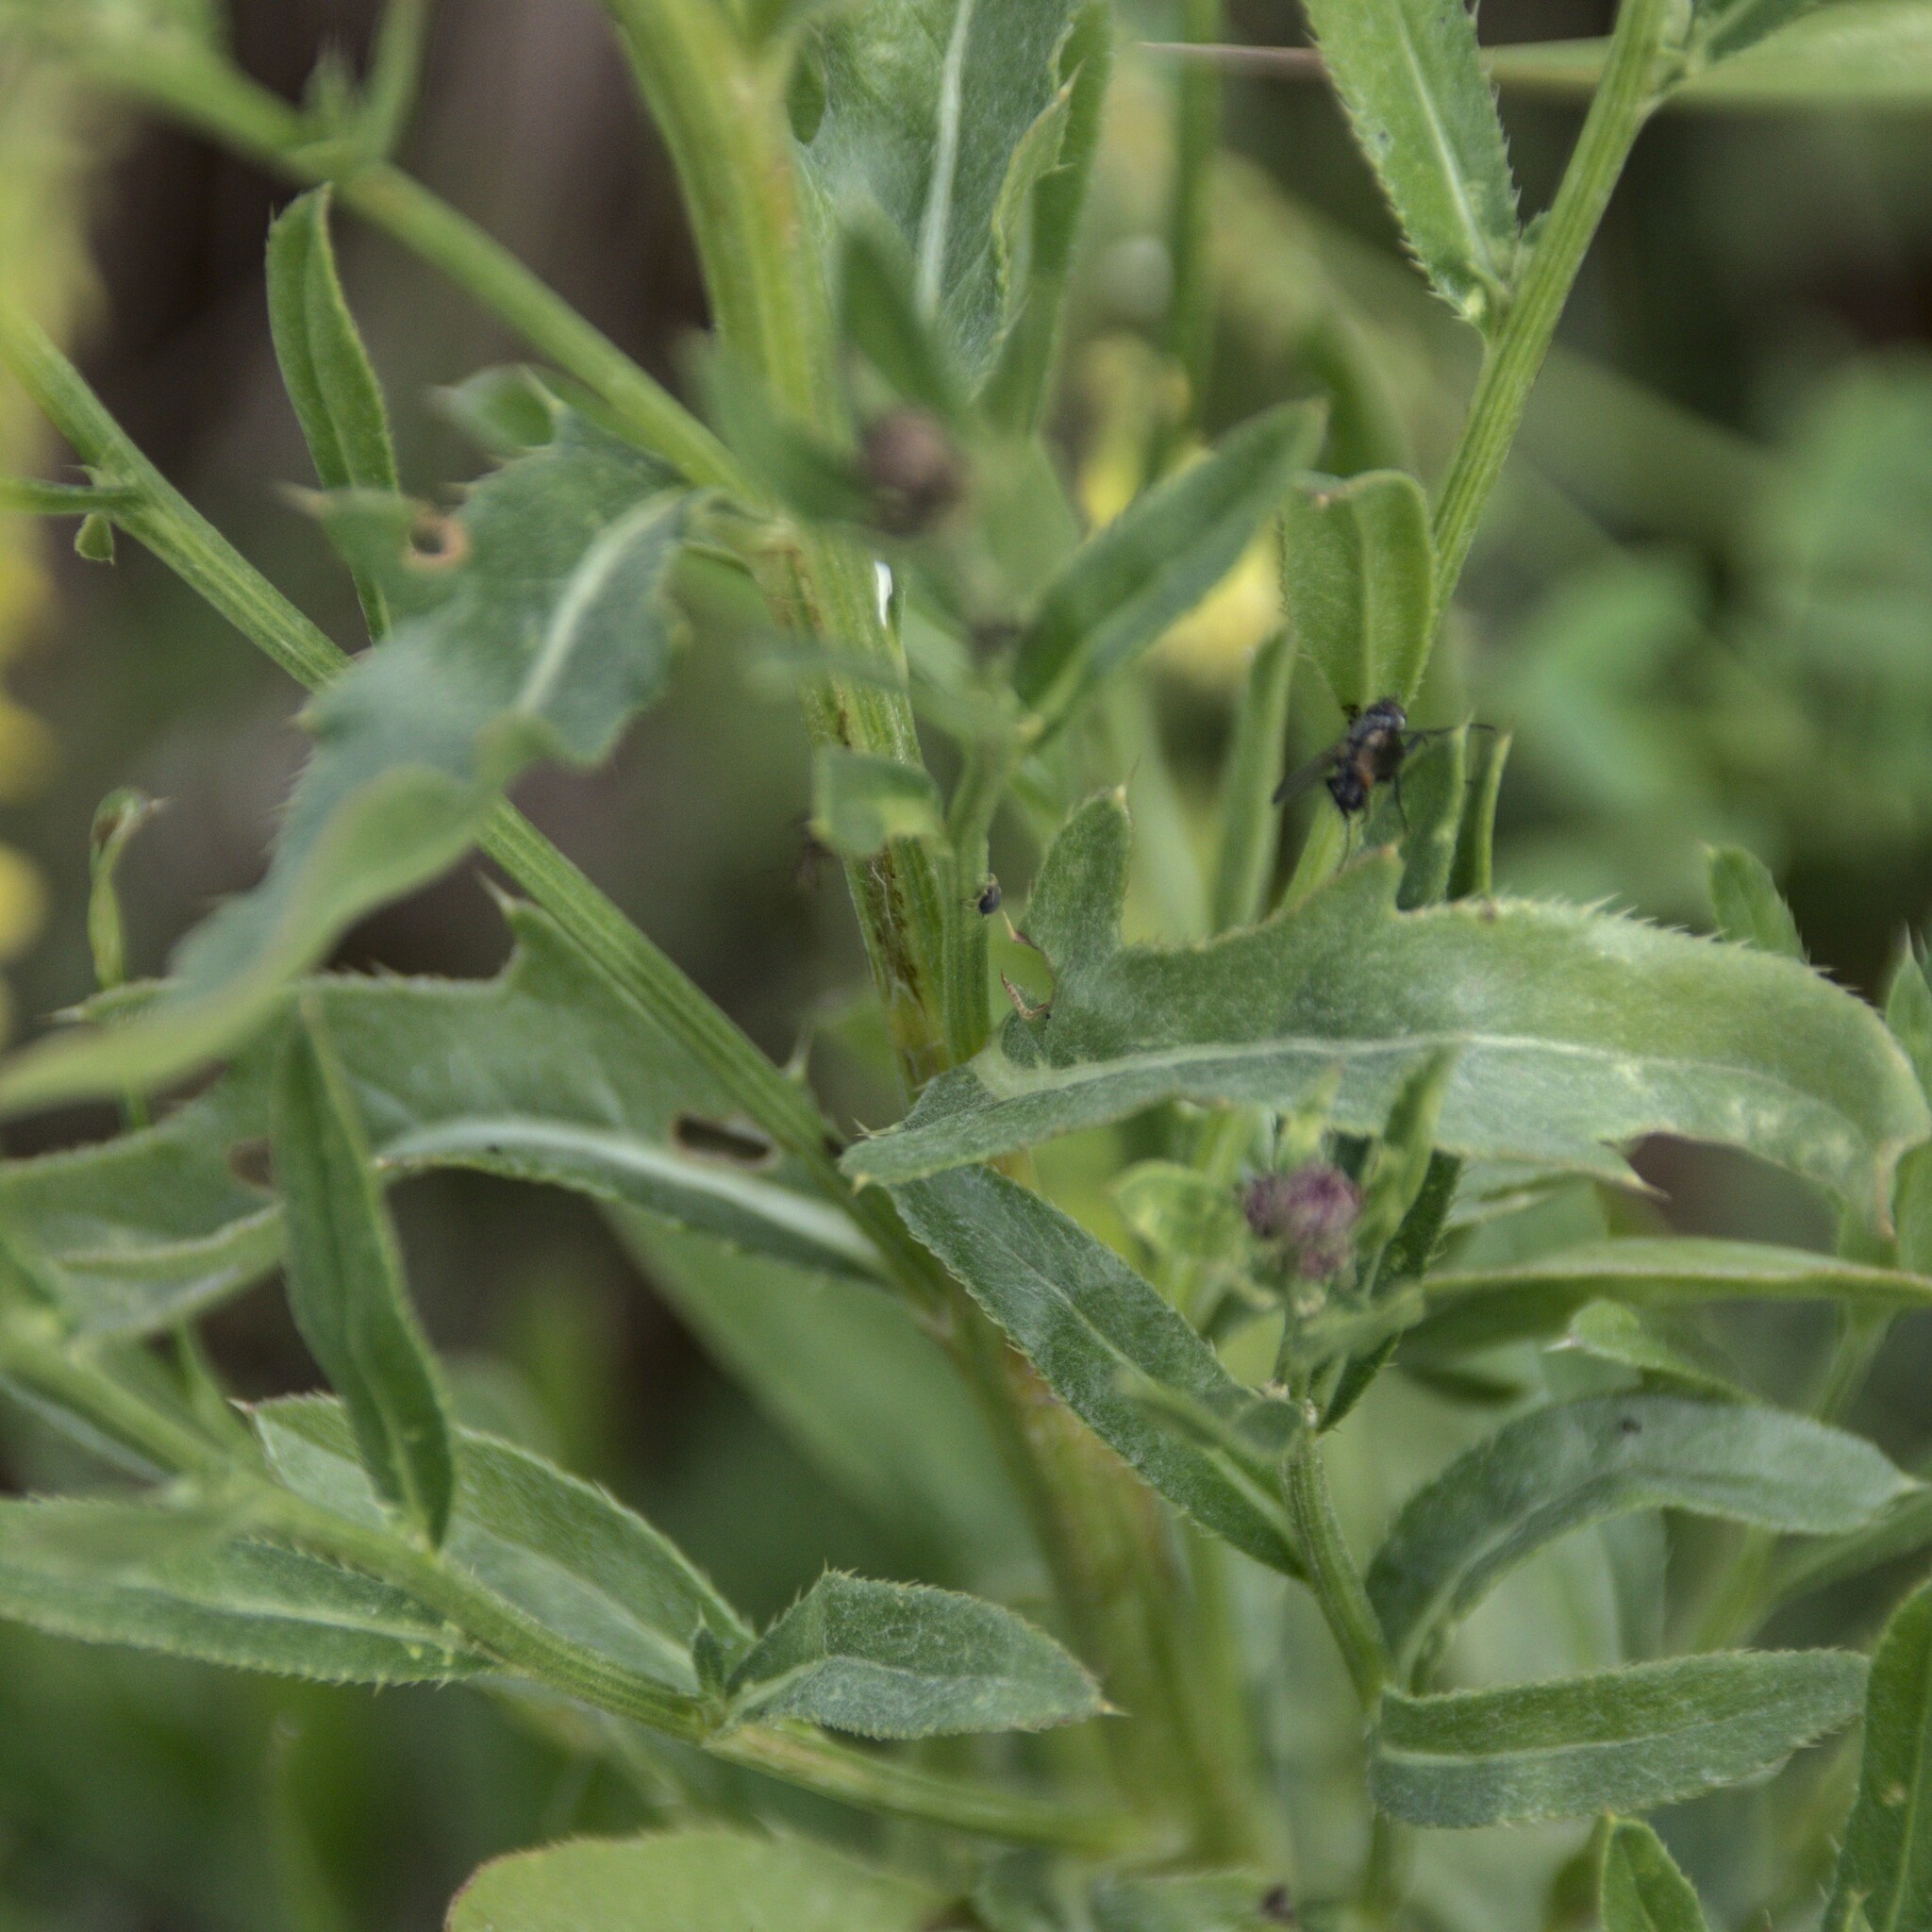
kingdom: Plantae
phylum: Tracheophyta
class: Magnoliopsida
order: Asterales
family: Asteraceae
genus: Cirsium
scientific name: Cirsium arvense
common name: Creeping thistle
